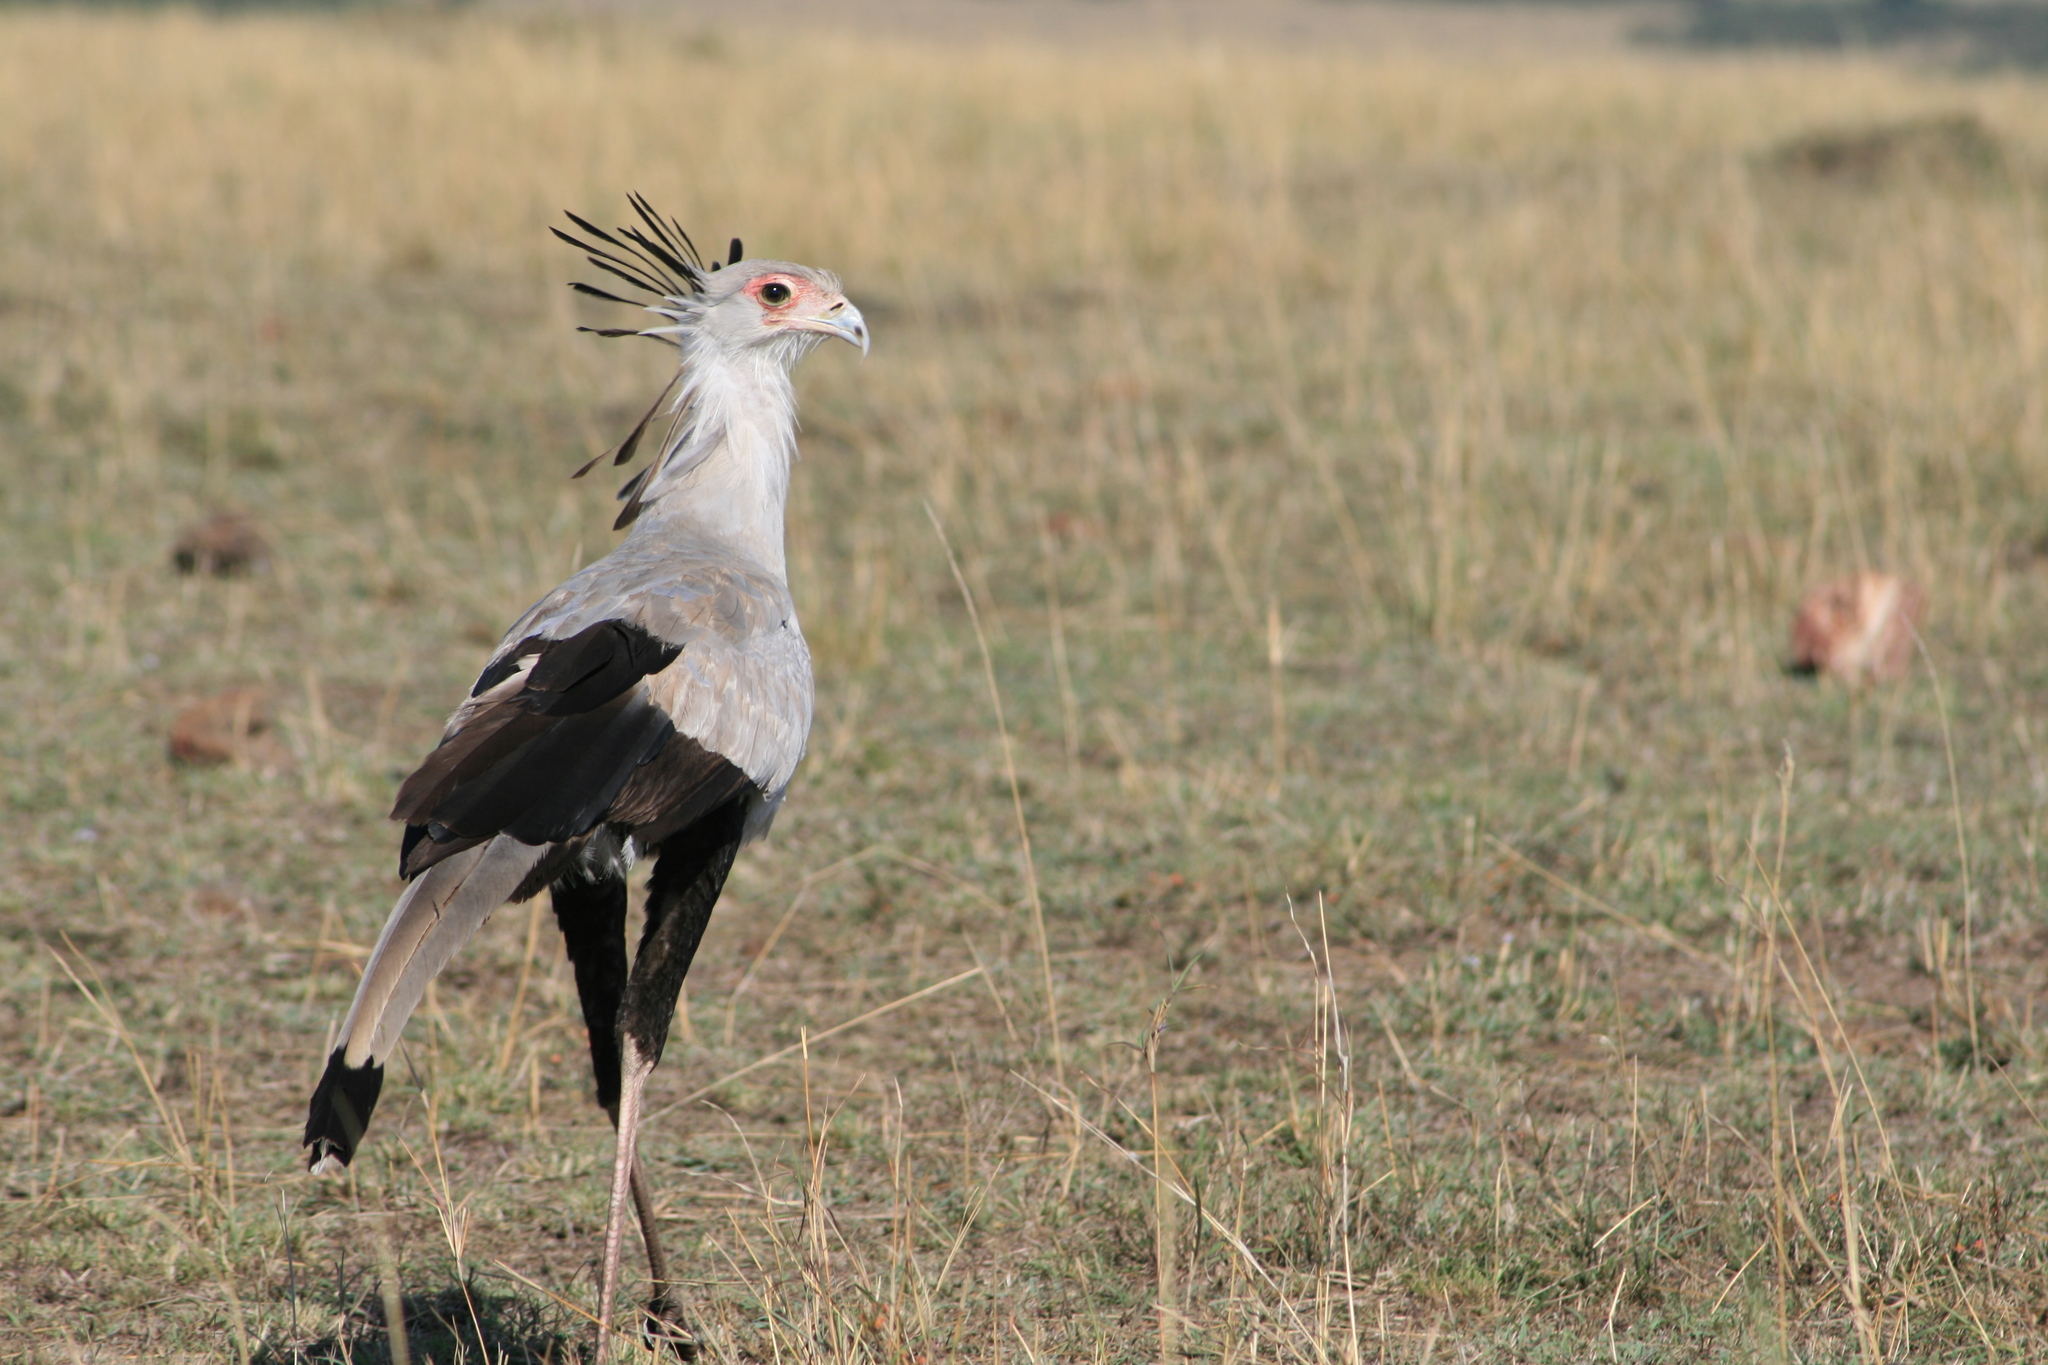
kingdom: Animalia
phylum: Chordata
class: Aves
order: Accipitriformes
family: Sagittariidae
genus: Sagittarius
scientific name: Sagittarius serpentarius
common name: Secretarybird
